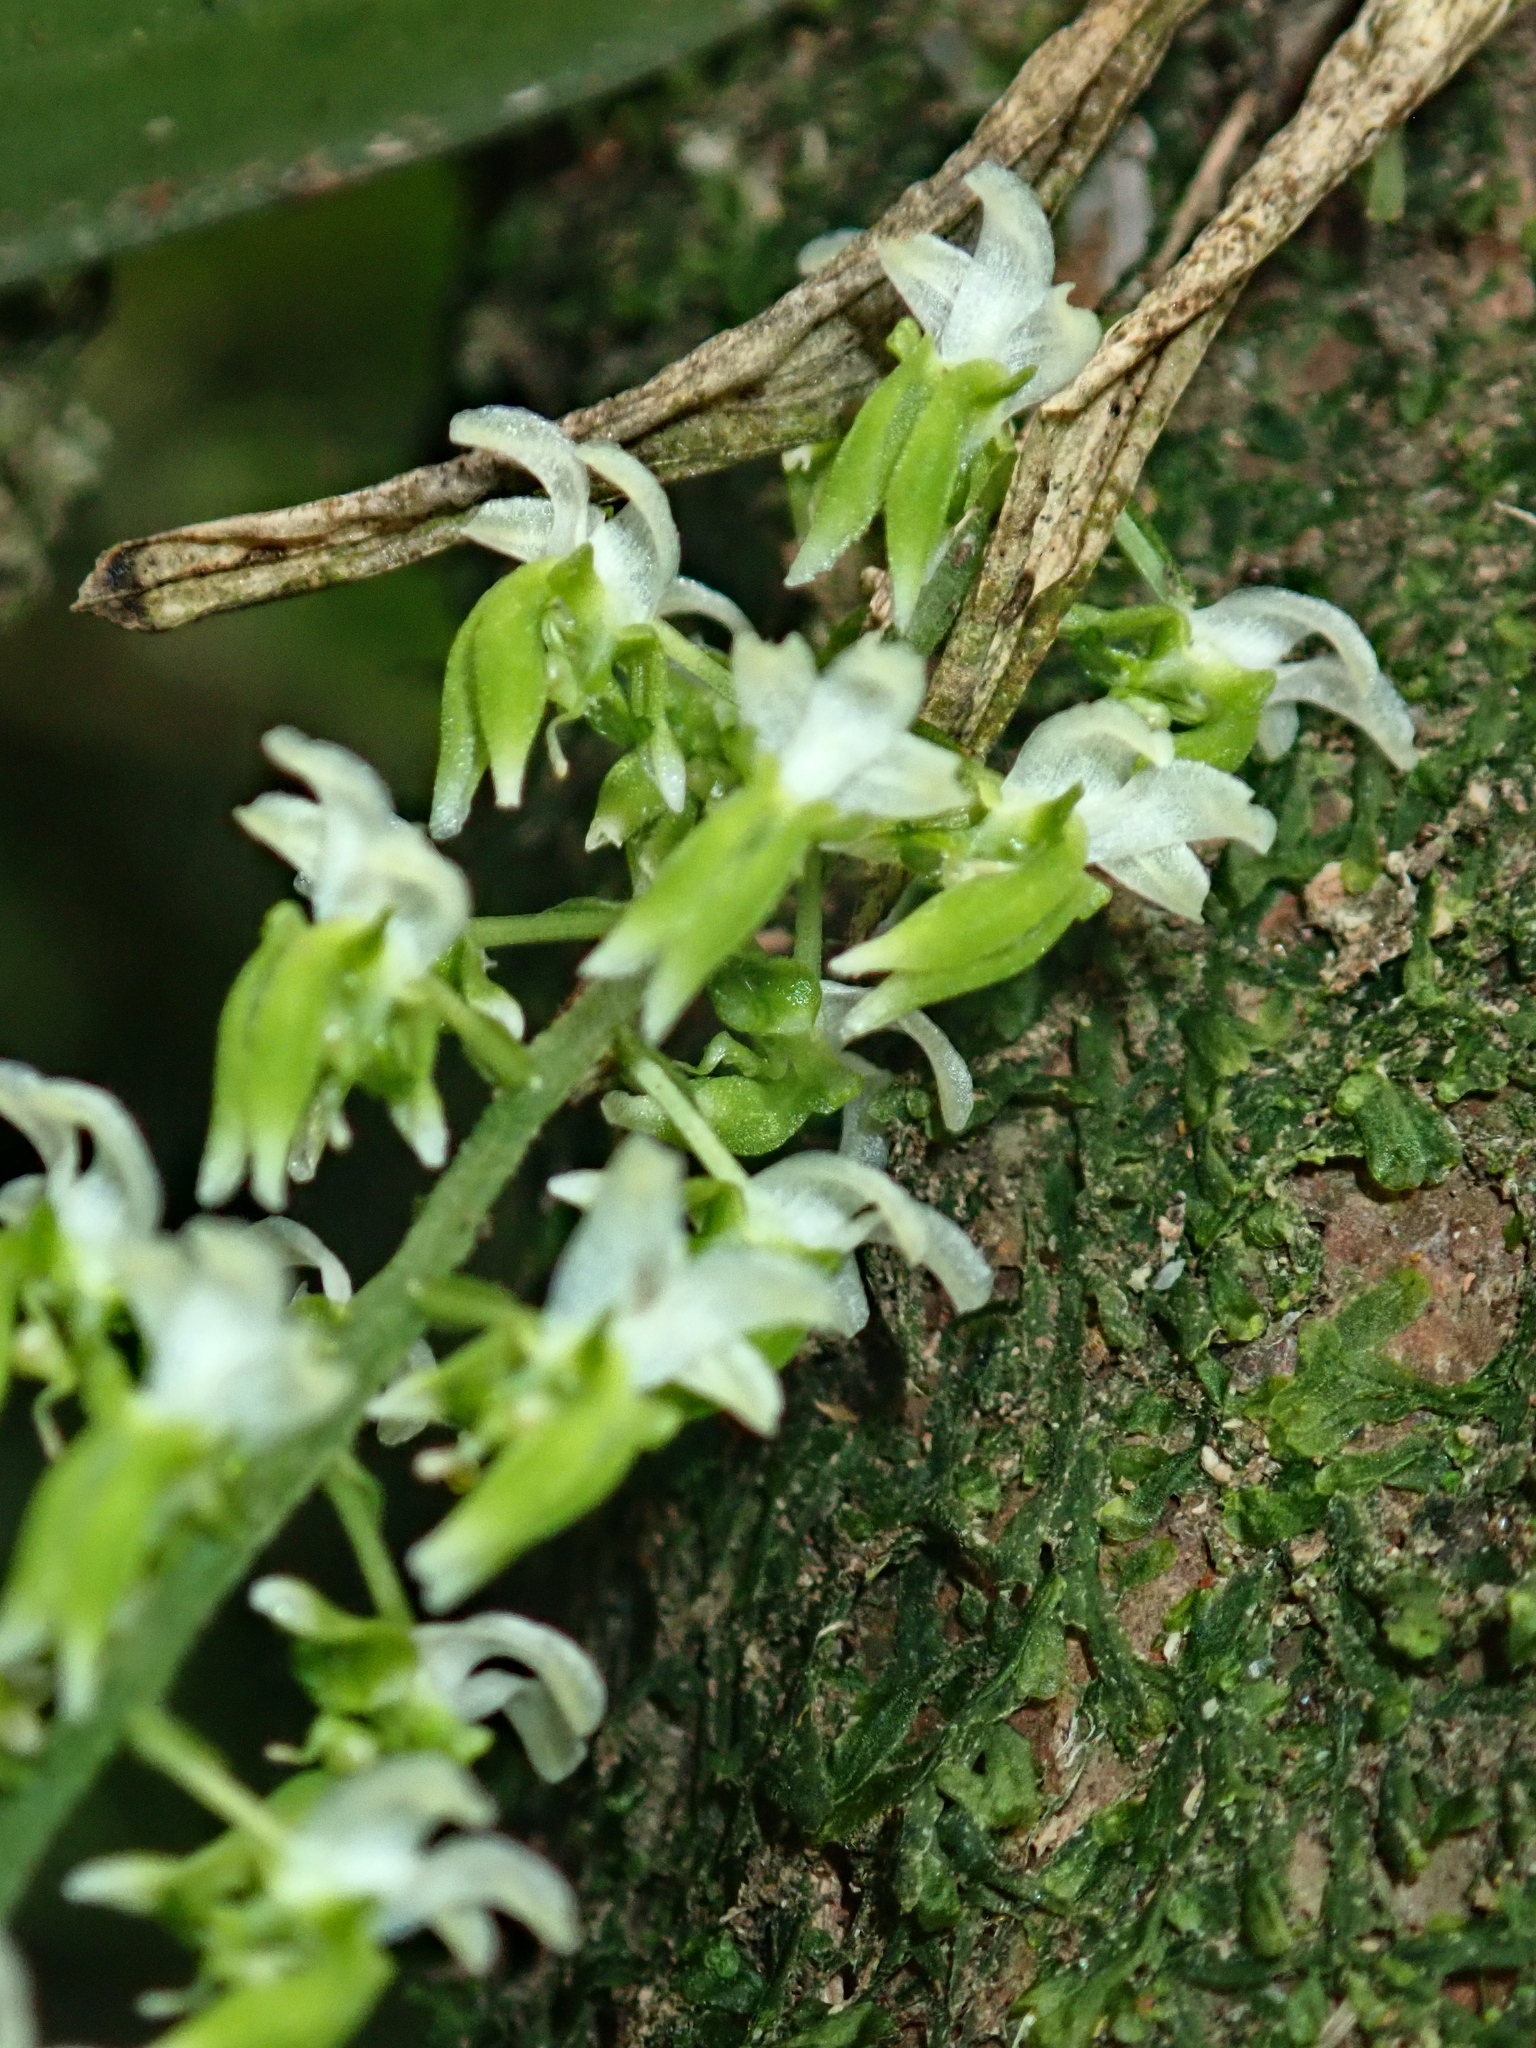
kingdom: Plantae
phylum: Tracheophyta
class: Liliopsida
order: Asparagales
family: Orchidaceae
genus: Zygostates
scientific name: Zygostates pellucida
